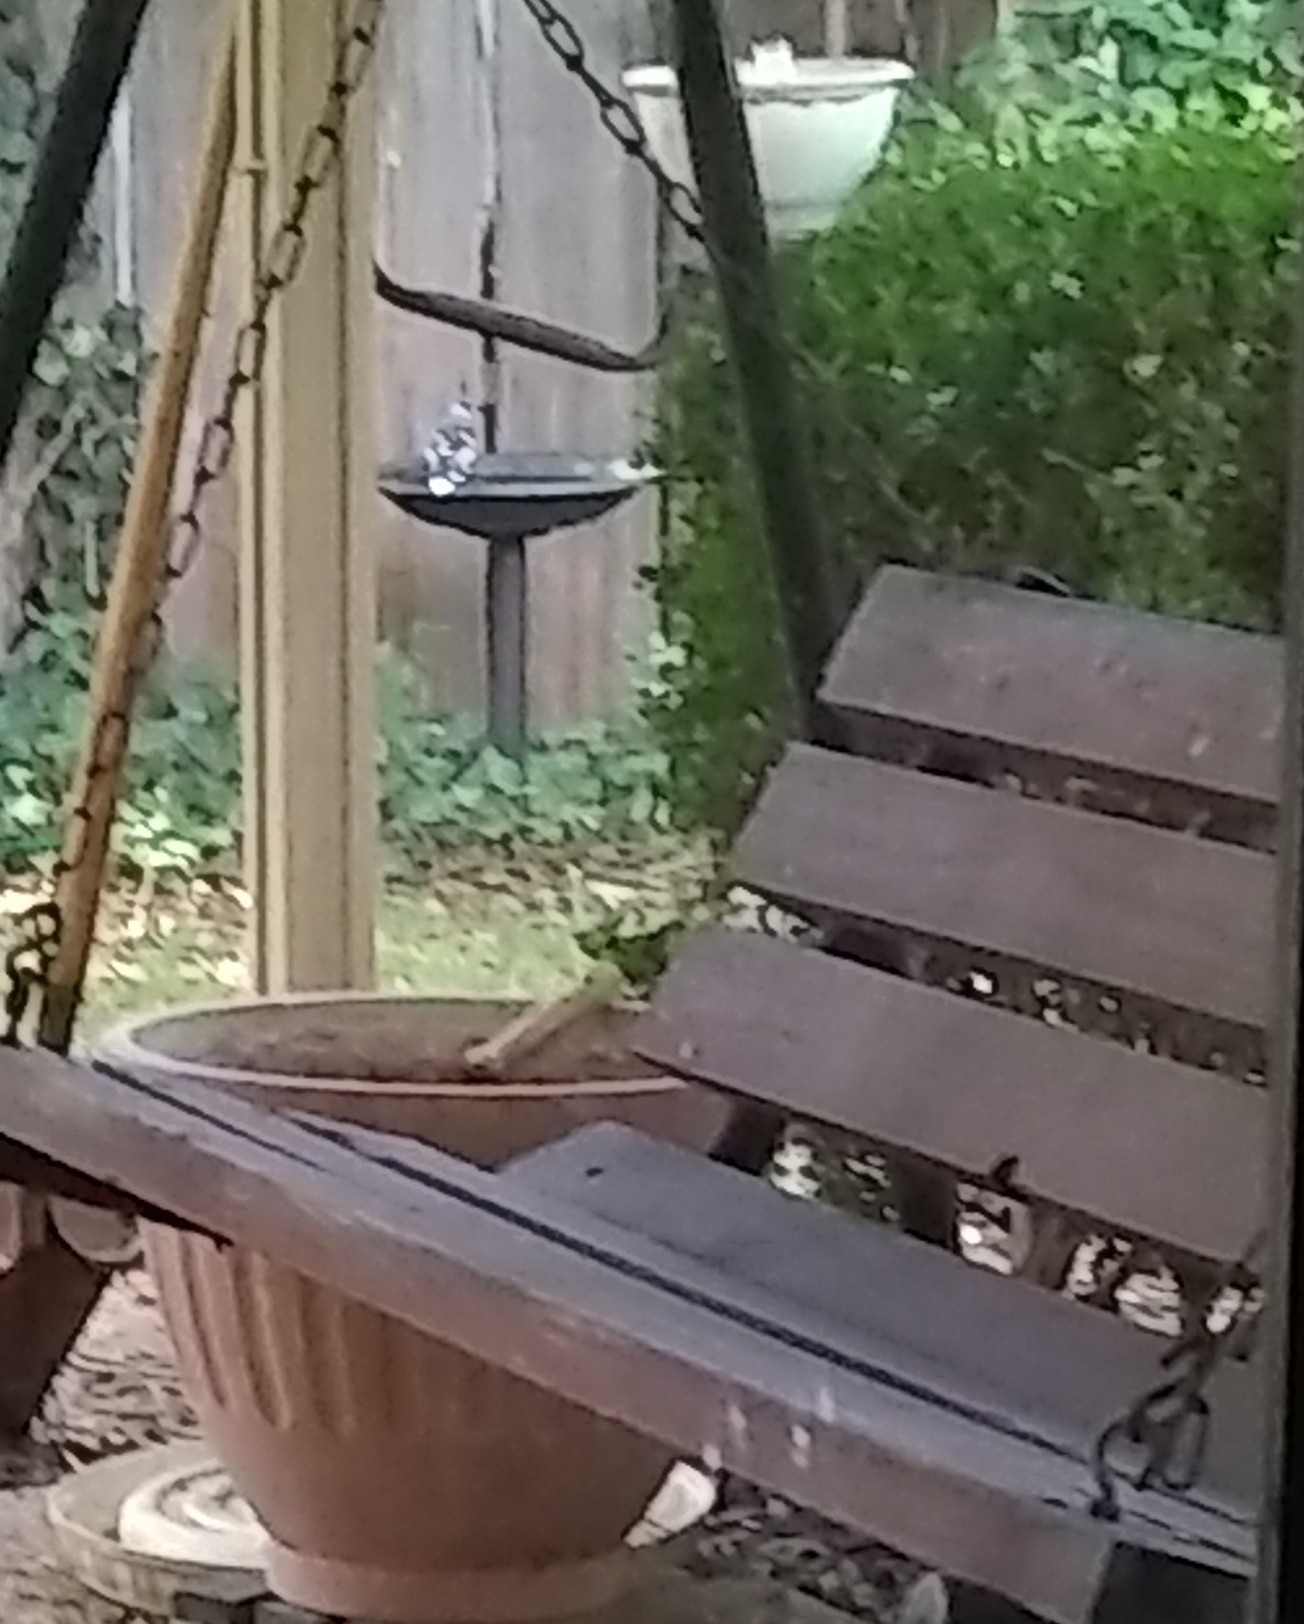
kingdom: Animalia
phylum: Chordata
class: Aves
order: Passeriformes
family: Corvidae
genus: Cyanocitta
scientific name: Cyanocitta cristata
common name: Blue jay
